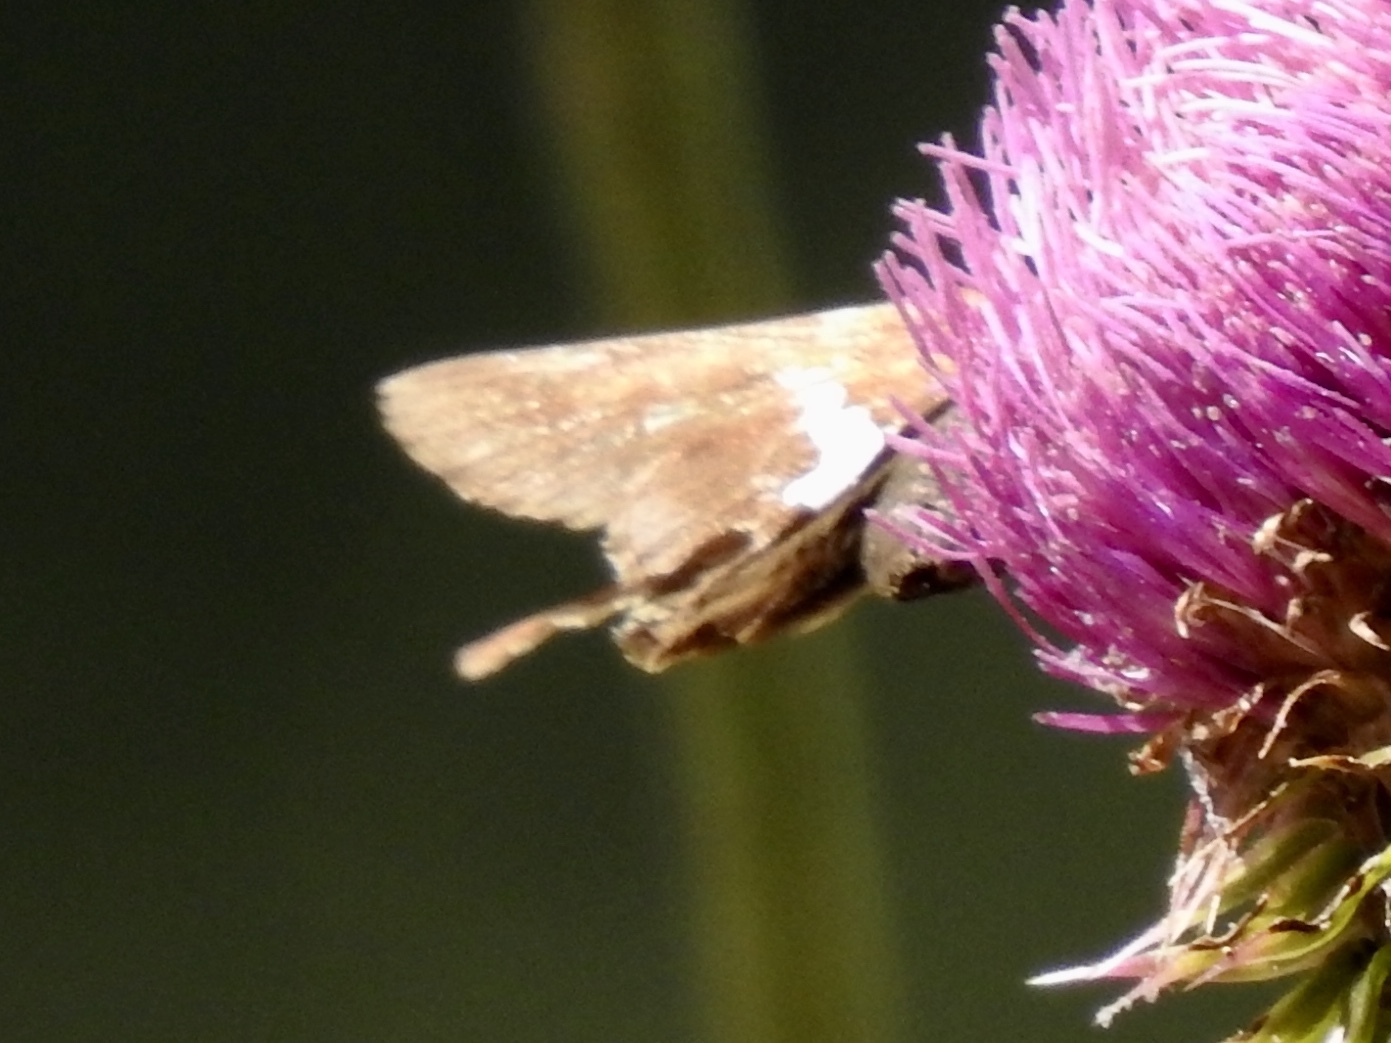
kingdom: Animalia
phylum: Arthropoda
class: Insecta
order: Lepidoptera
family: Hesperiidae
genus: Epargyreus
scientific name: Epargyreus clarus
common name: Silver-spotted skipper
